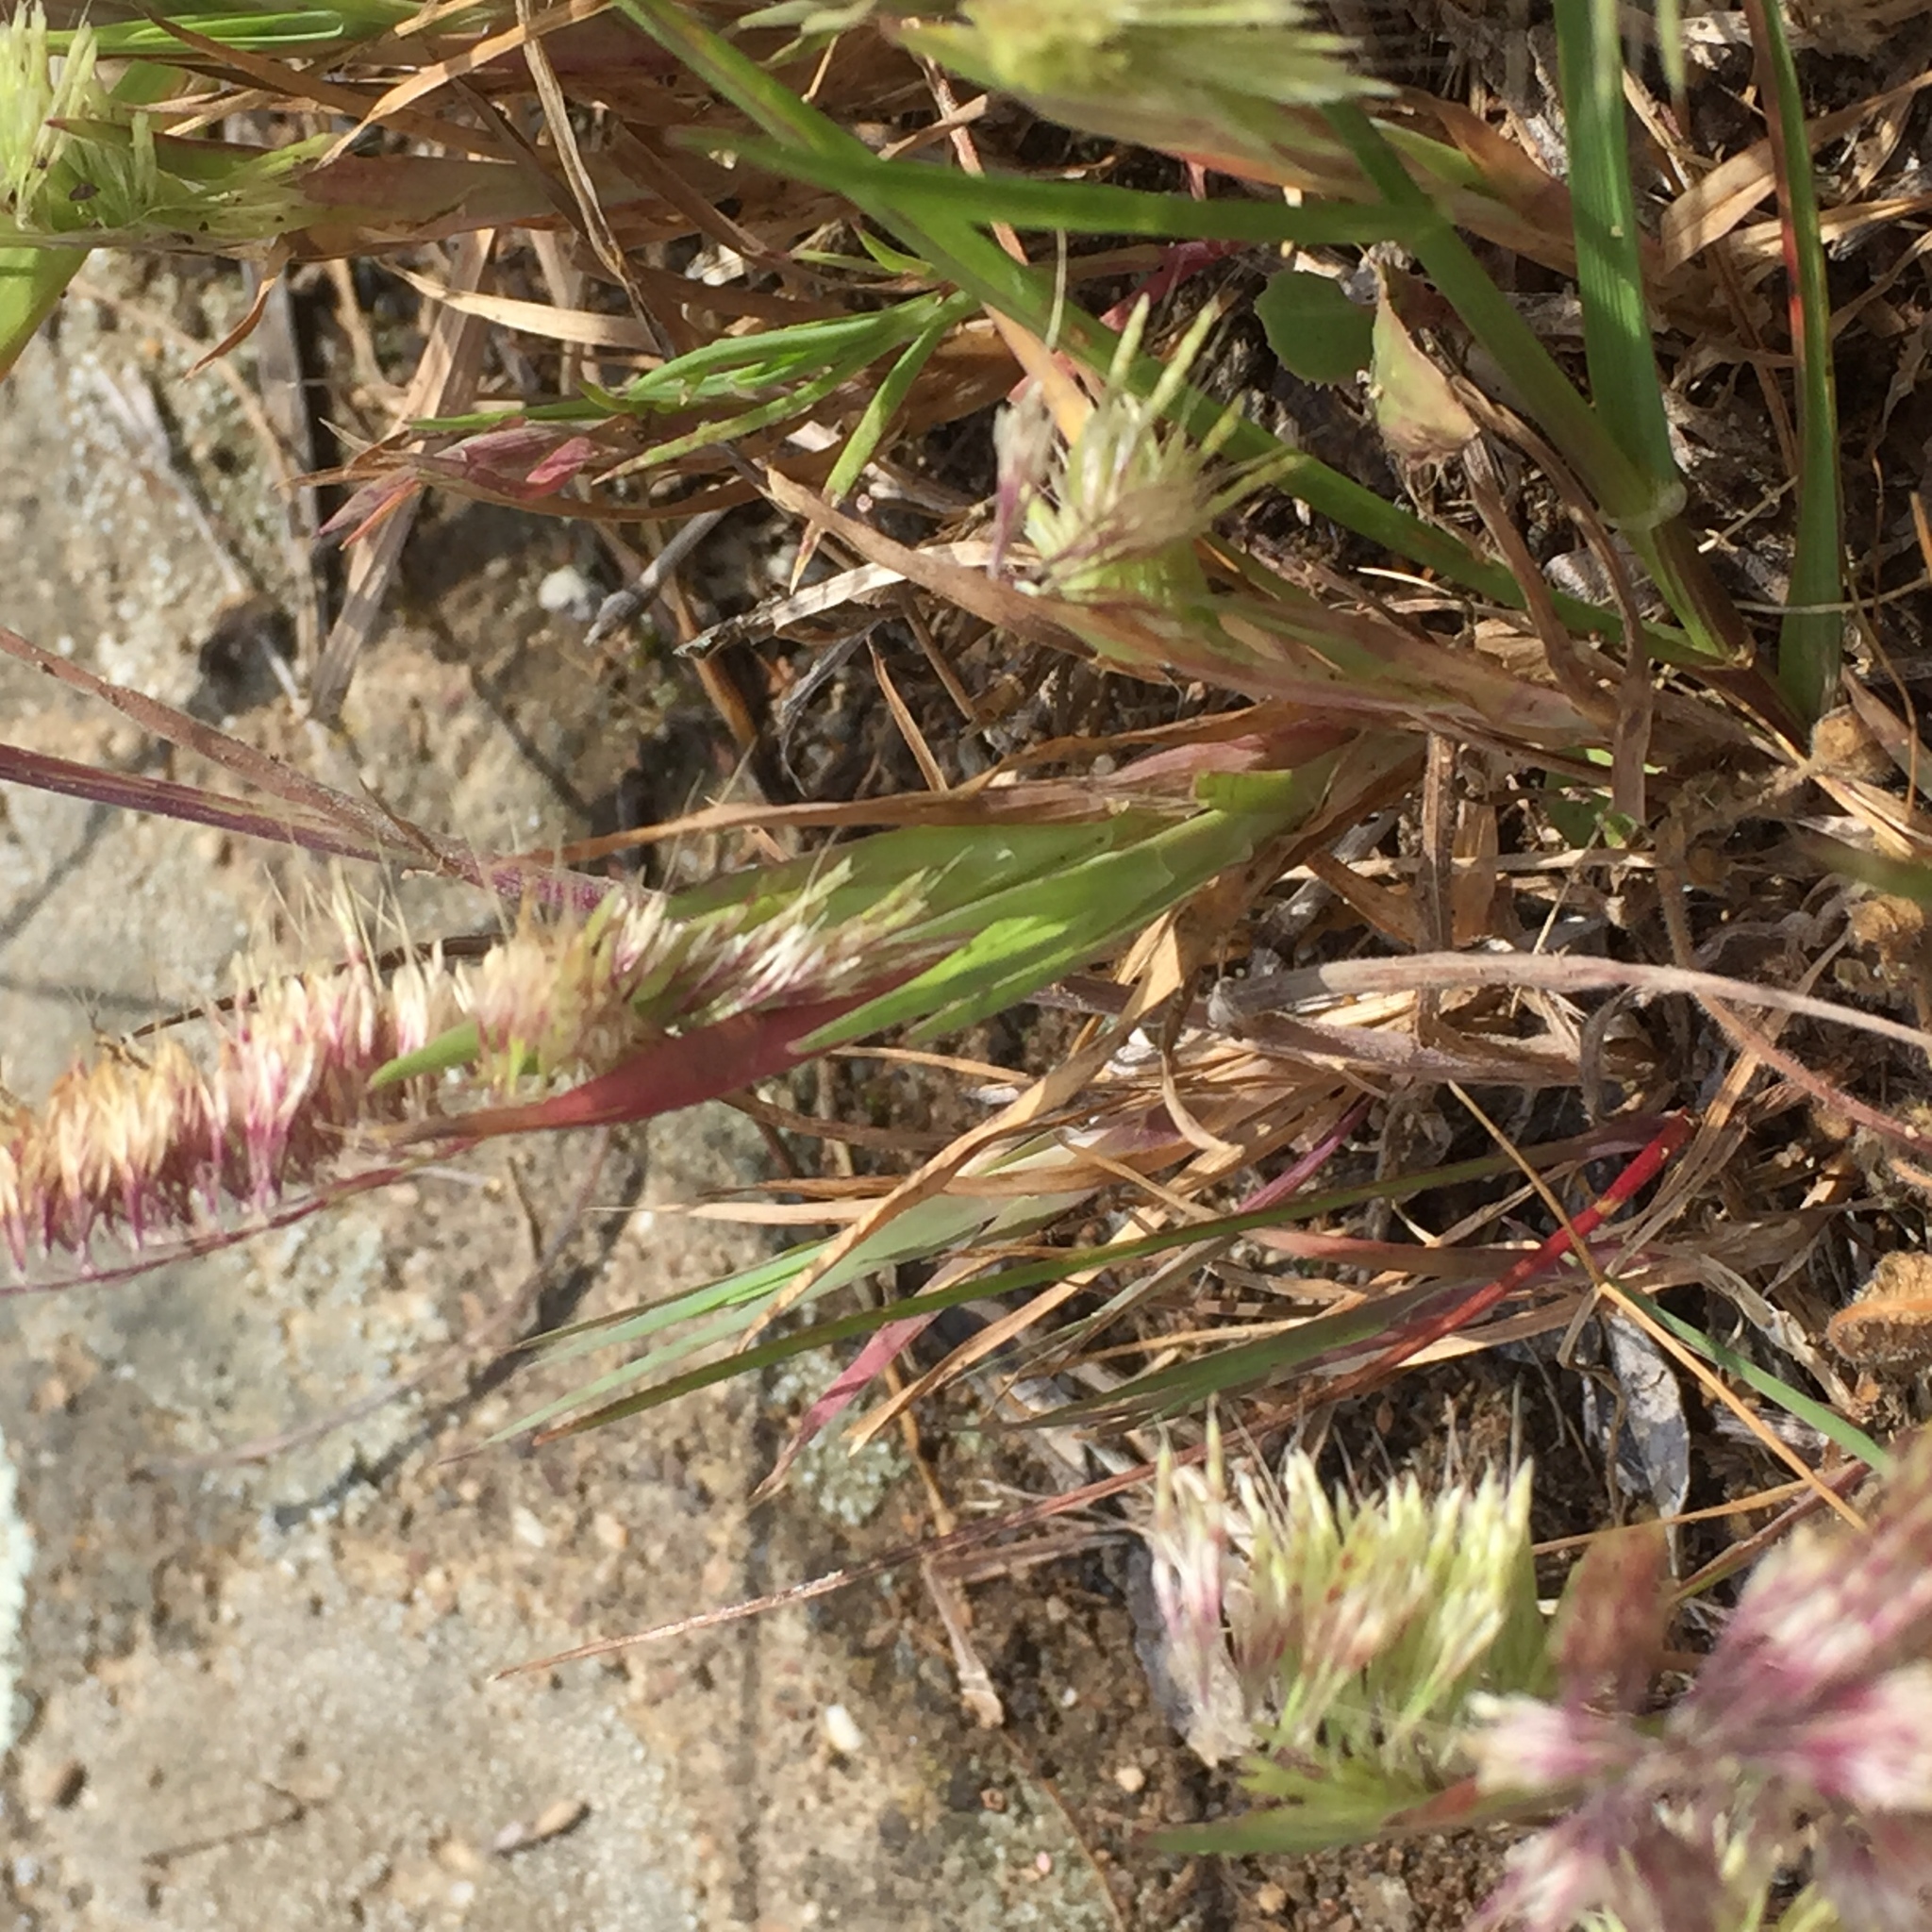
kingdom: Plantae
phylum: Tracheophyta
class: Liliopsida
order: Poales
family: Poaceae
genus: Lamarckia
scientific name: Lamarckia aurea
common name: Golden dog's-tail
